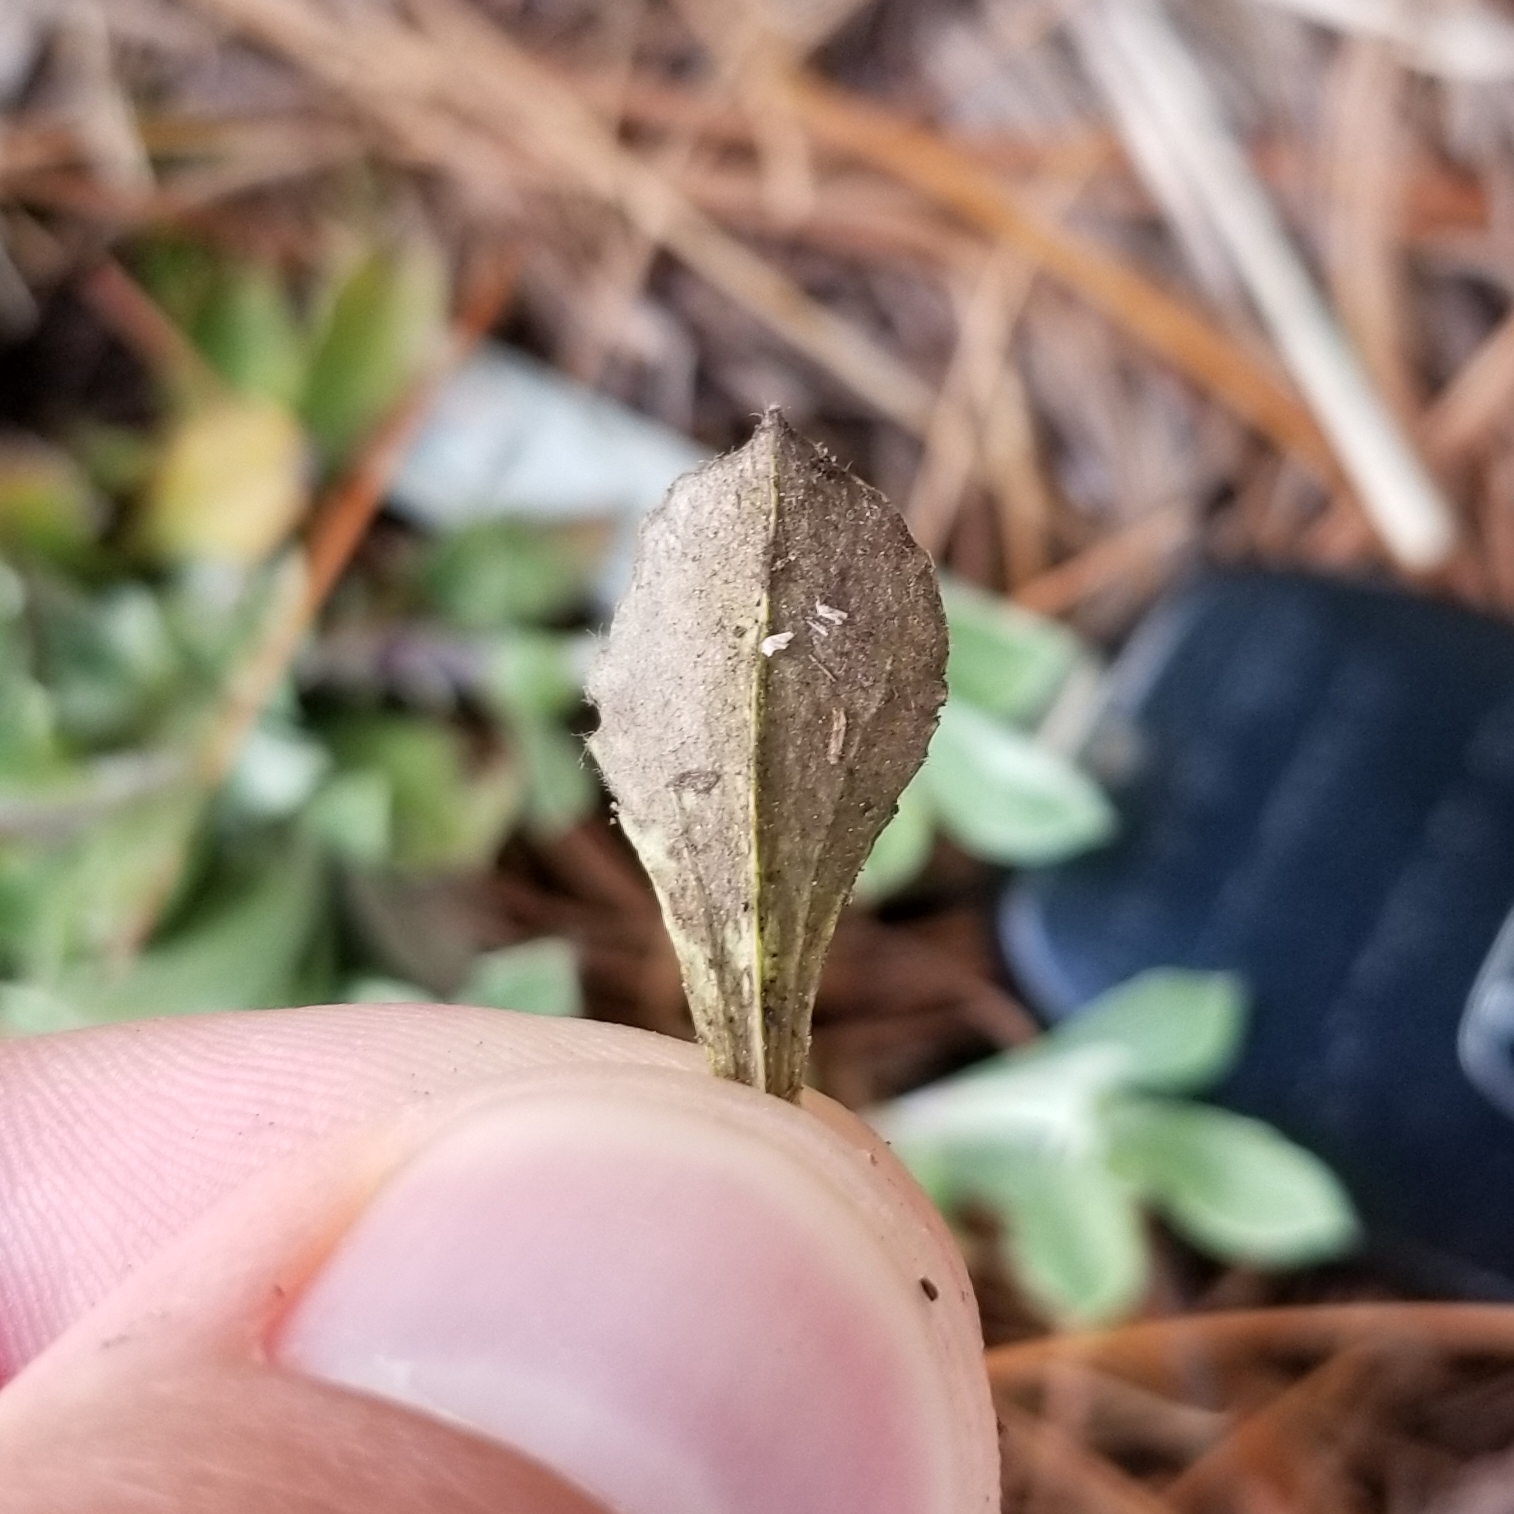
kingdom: Plantae
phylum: Tracheophyta
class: Magnoliopsida
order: Asterales
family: Asteraceae
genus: Antennaria
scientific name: Antennaria howellii
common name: Howell's pussytoes
